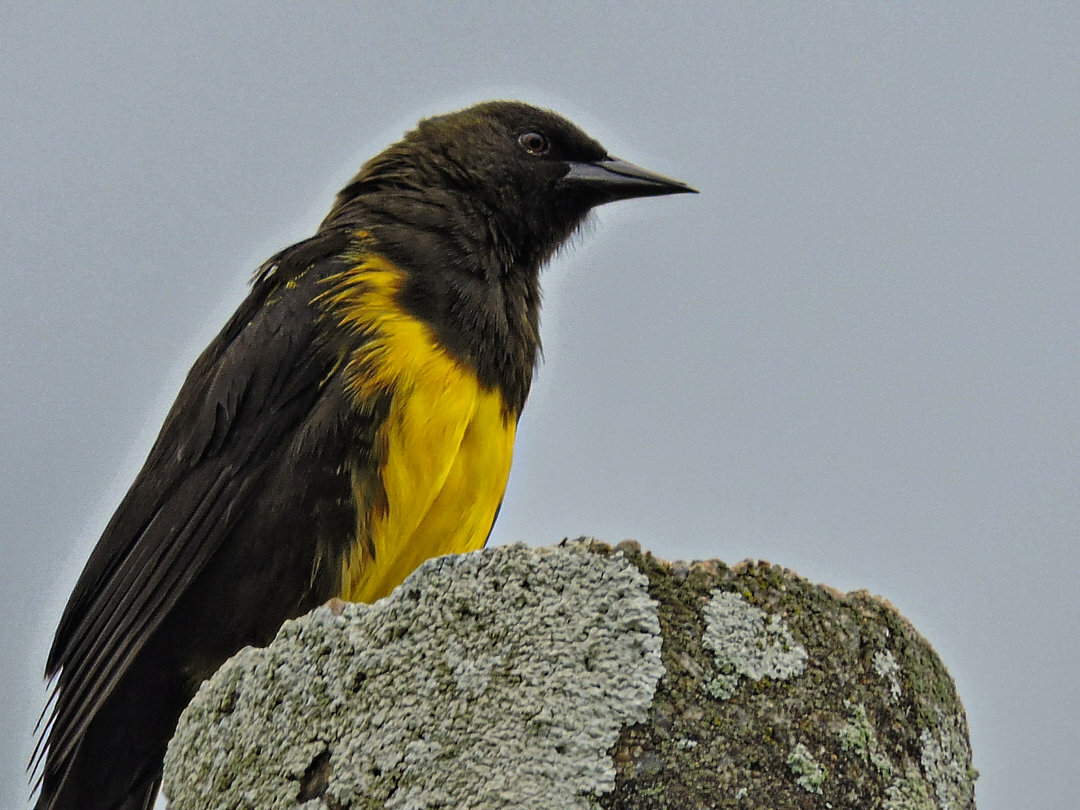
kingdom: Animalia
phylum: Chordata
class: Aves
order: Passeriformes
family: Icteridae
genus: Pseudoleistes
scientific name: Pseudoleistes virescens
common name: Brown-and-yellow marshbird
